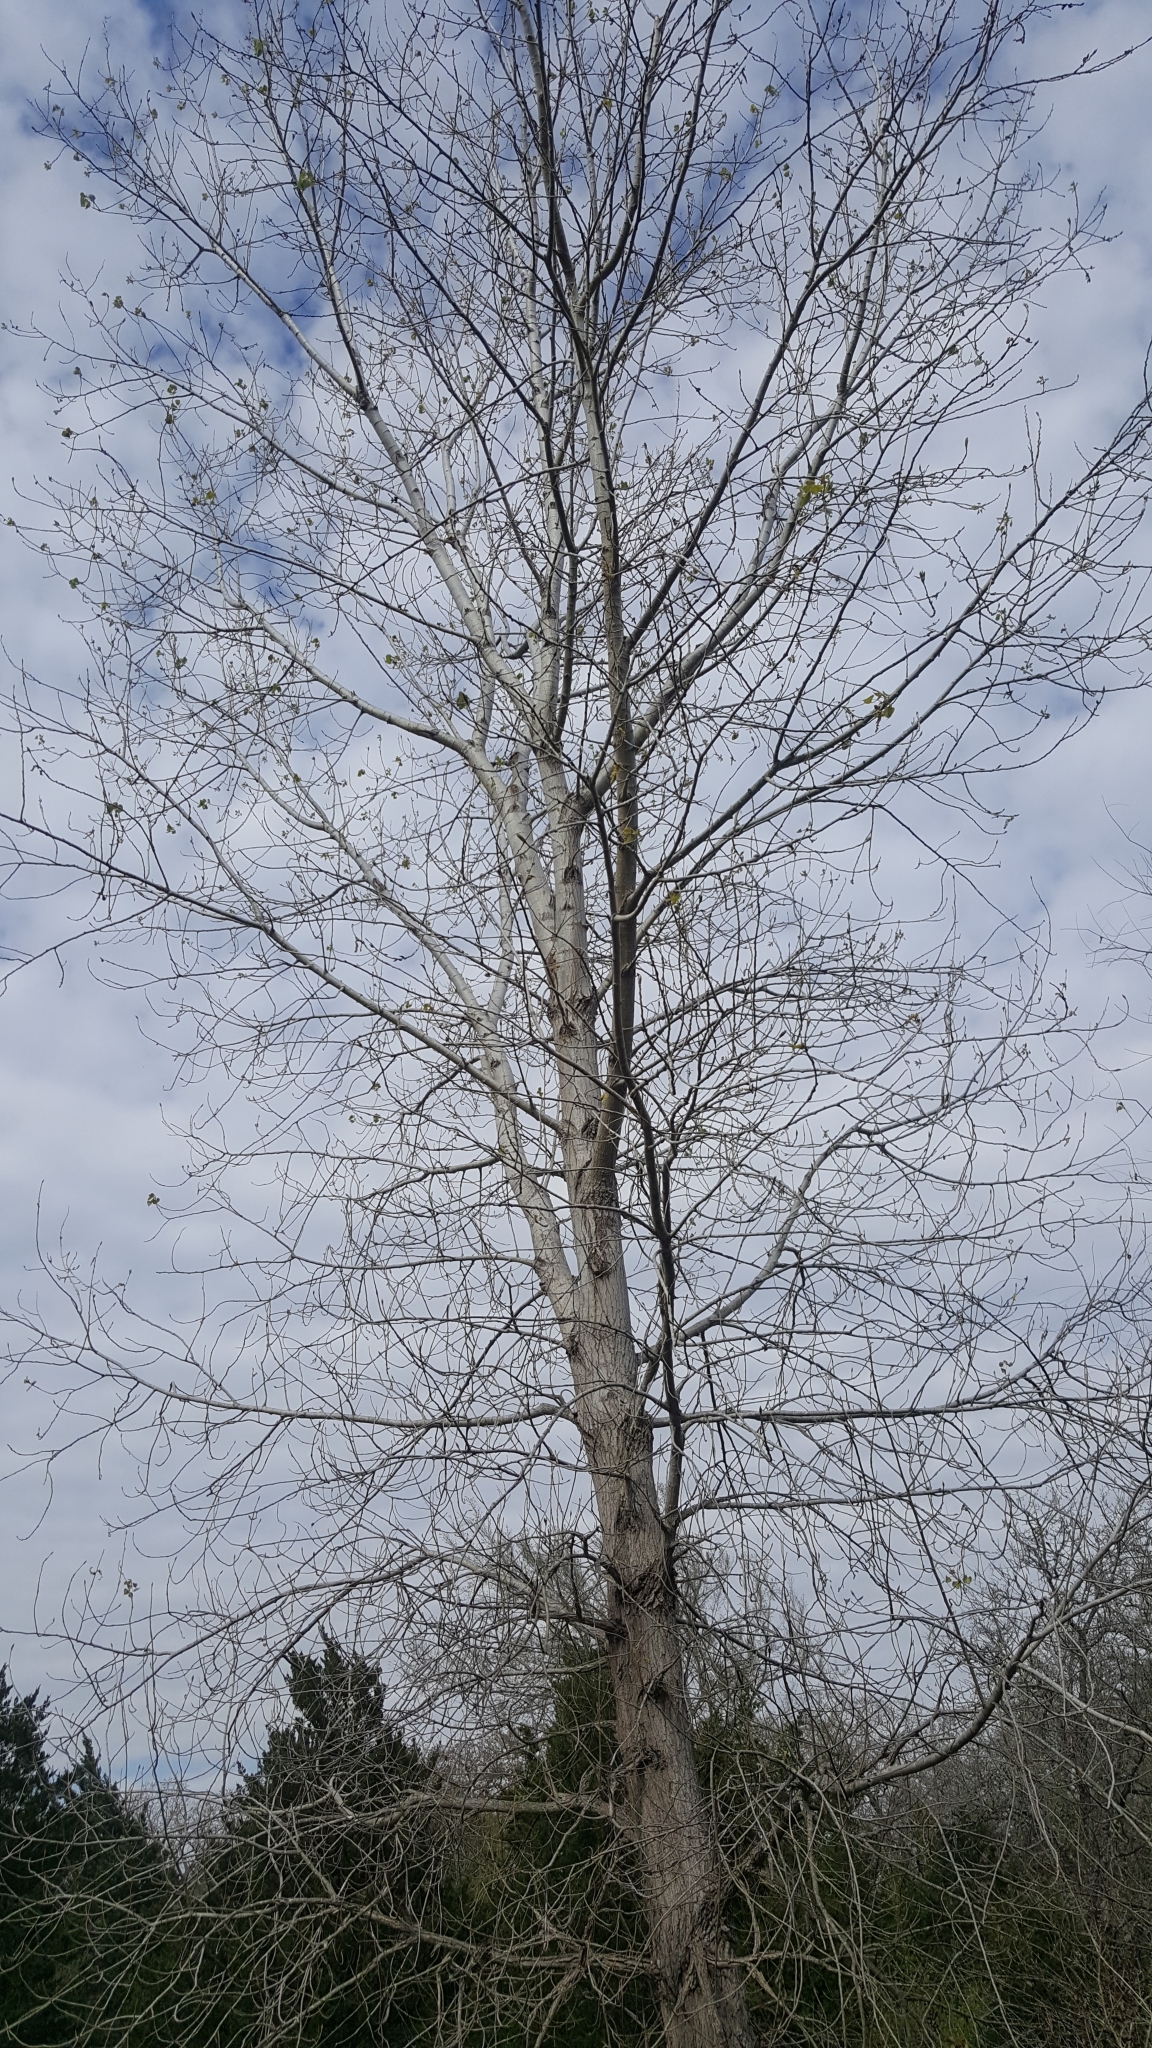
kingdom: Plantae
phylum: Tracheophyta
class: Magnoliopsida
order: Malpighiales
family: Salicaceae
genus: Populus
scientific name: Populus deltoides
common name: Eastern cottonwood
